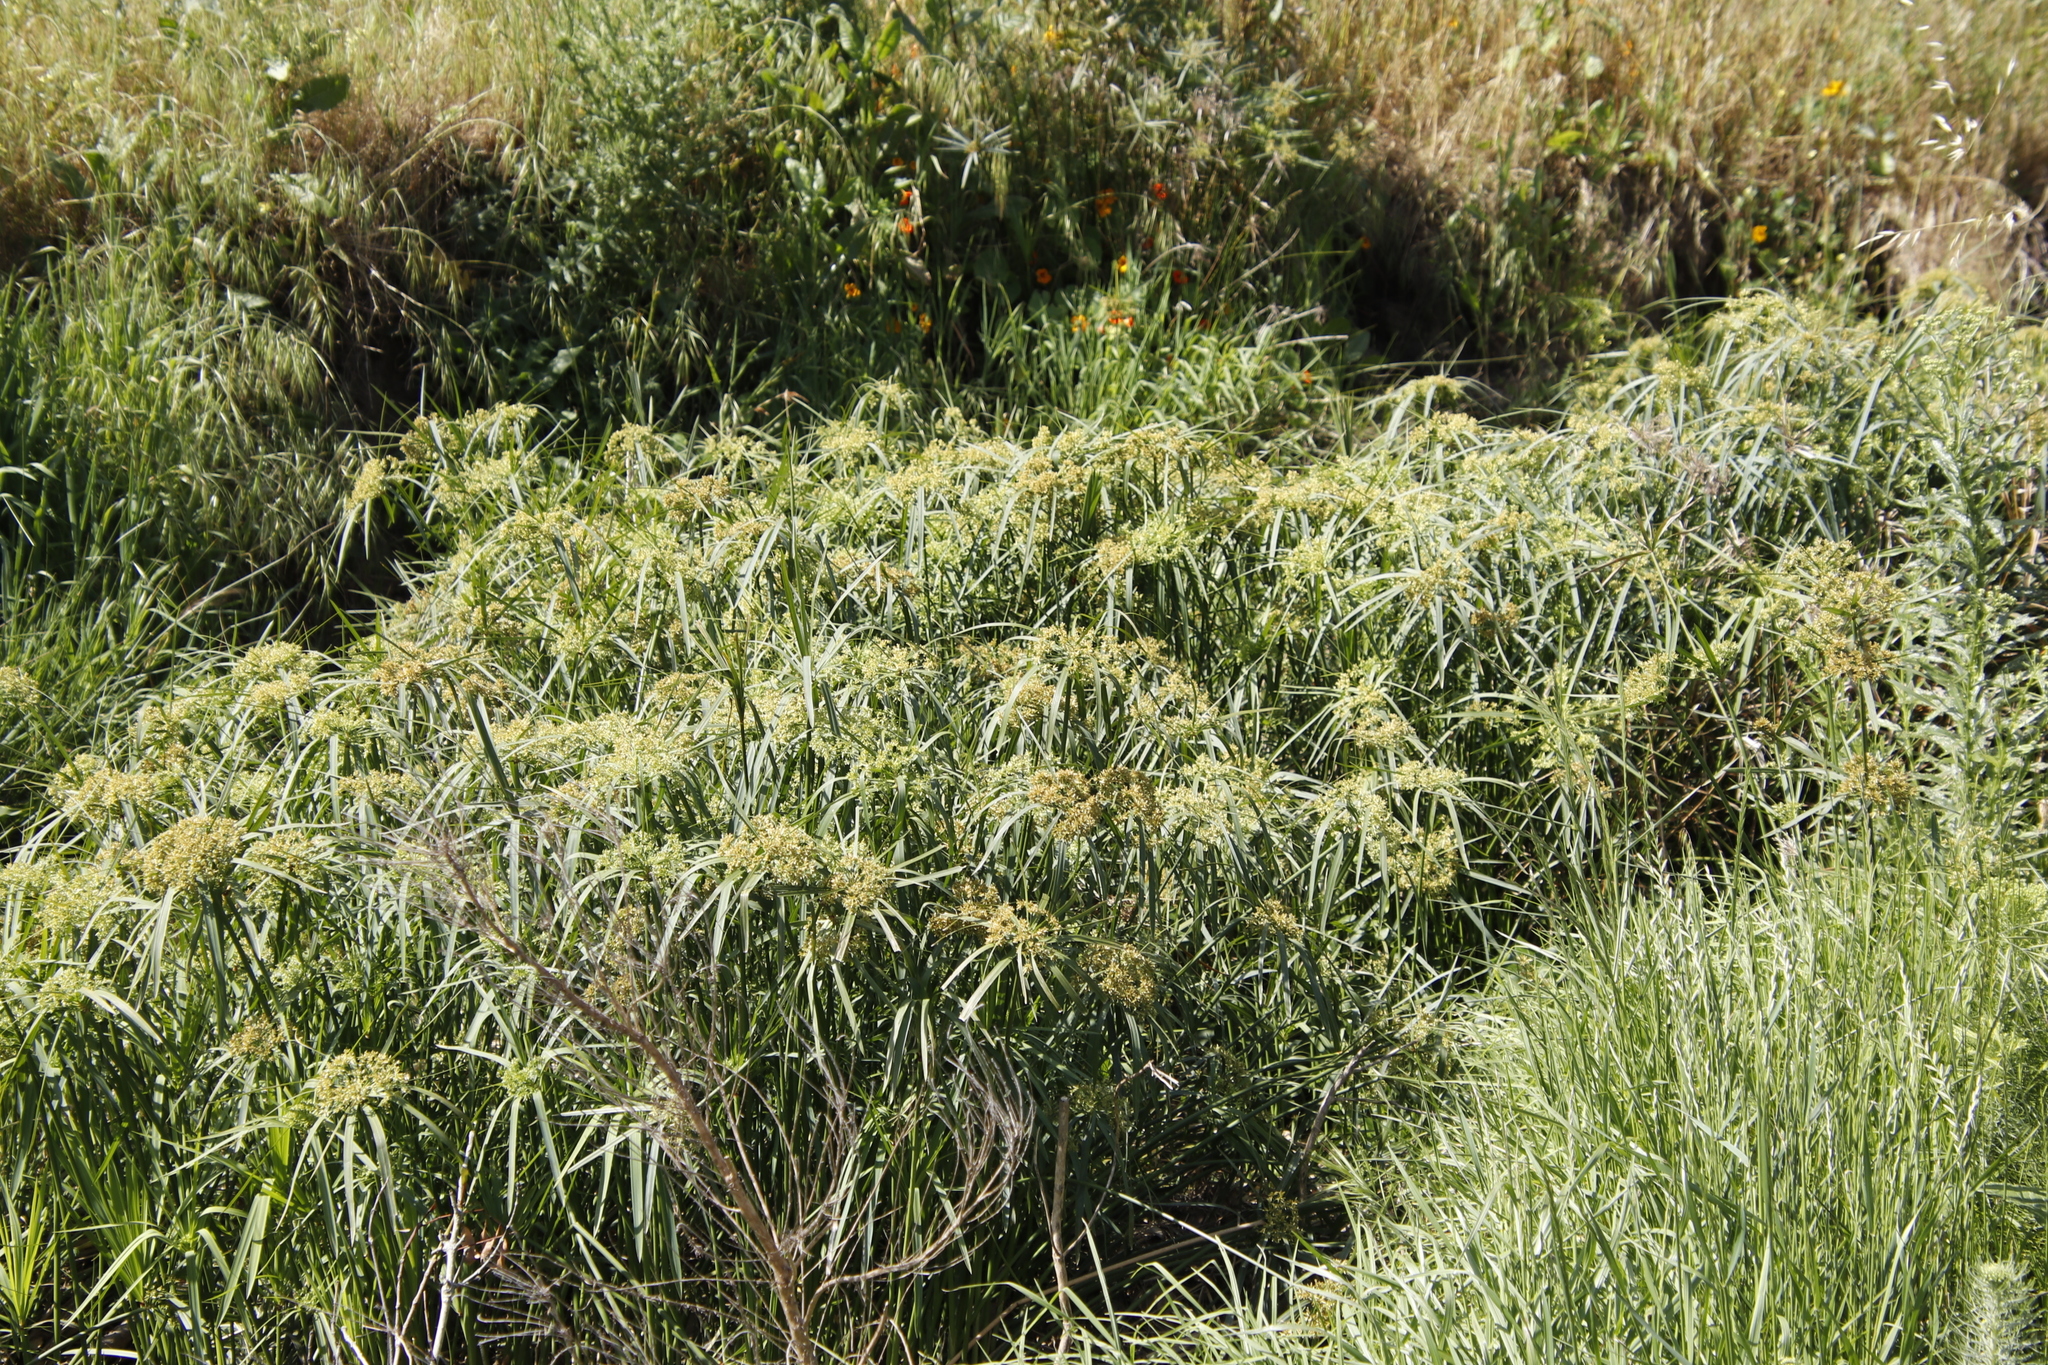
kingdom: Plantae
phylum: Tracheophyta
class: Liliopsida
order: Poales
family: Cyperaceae
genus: Cyperus
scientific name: Cyperus textilis
